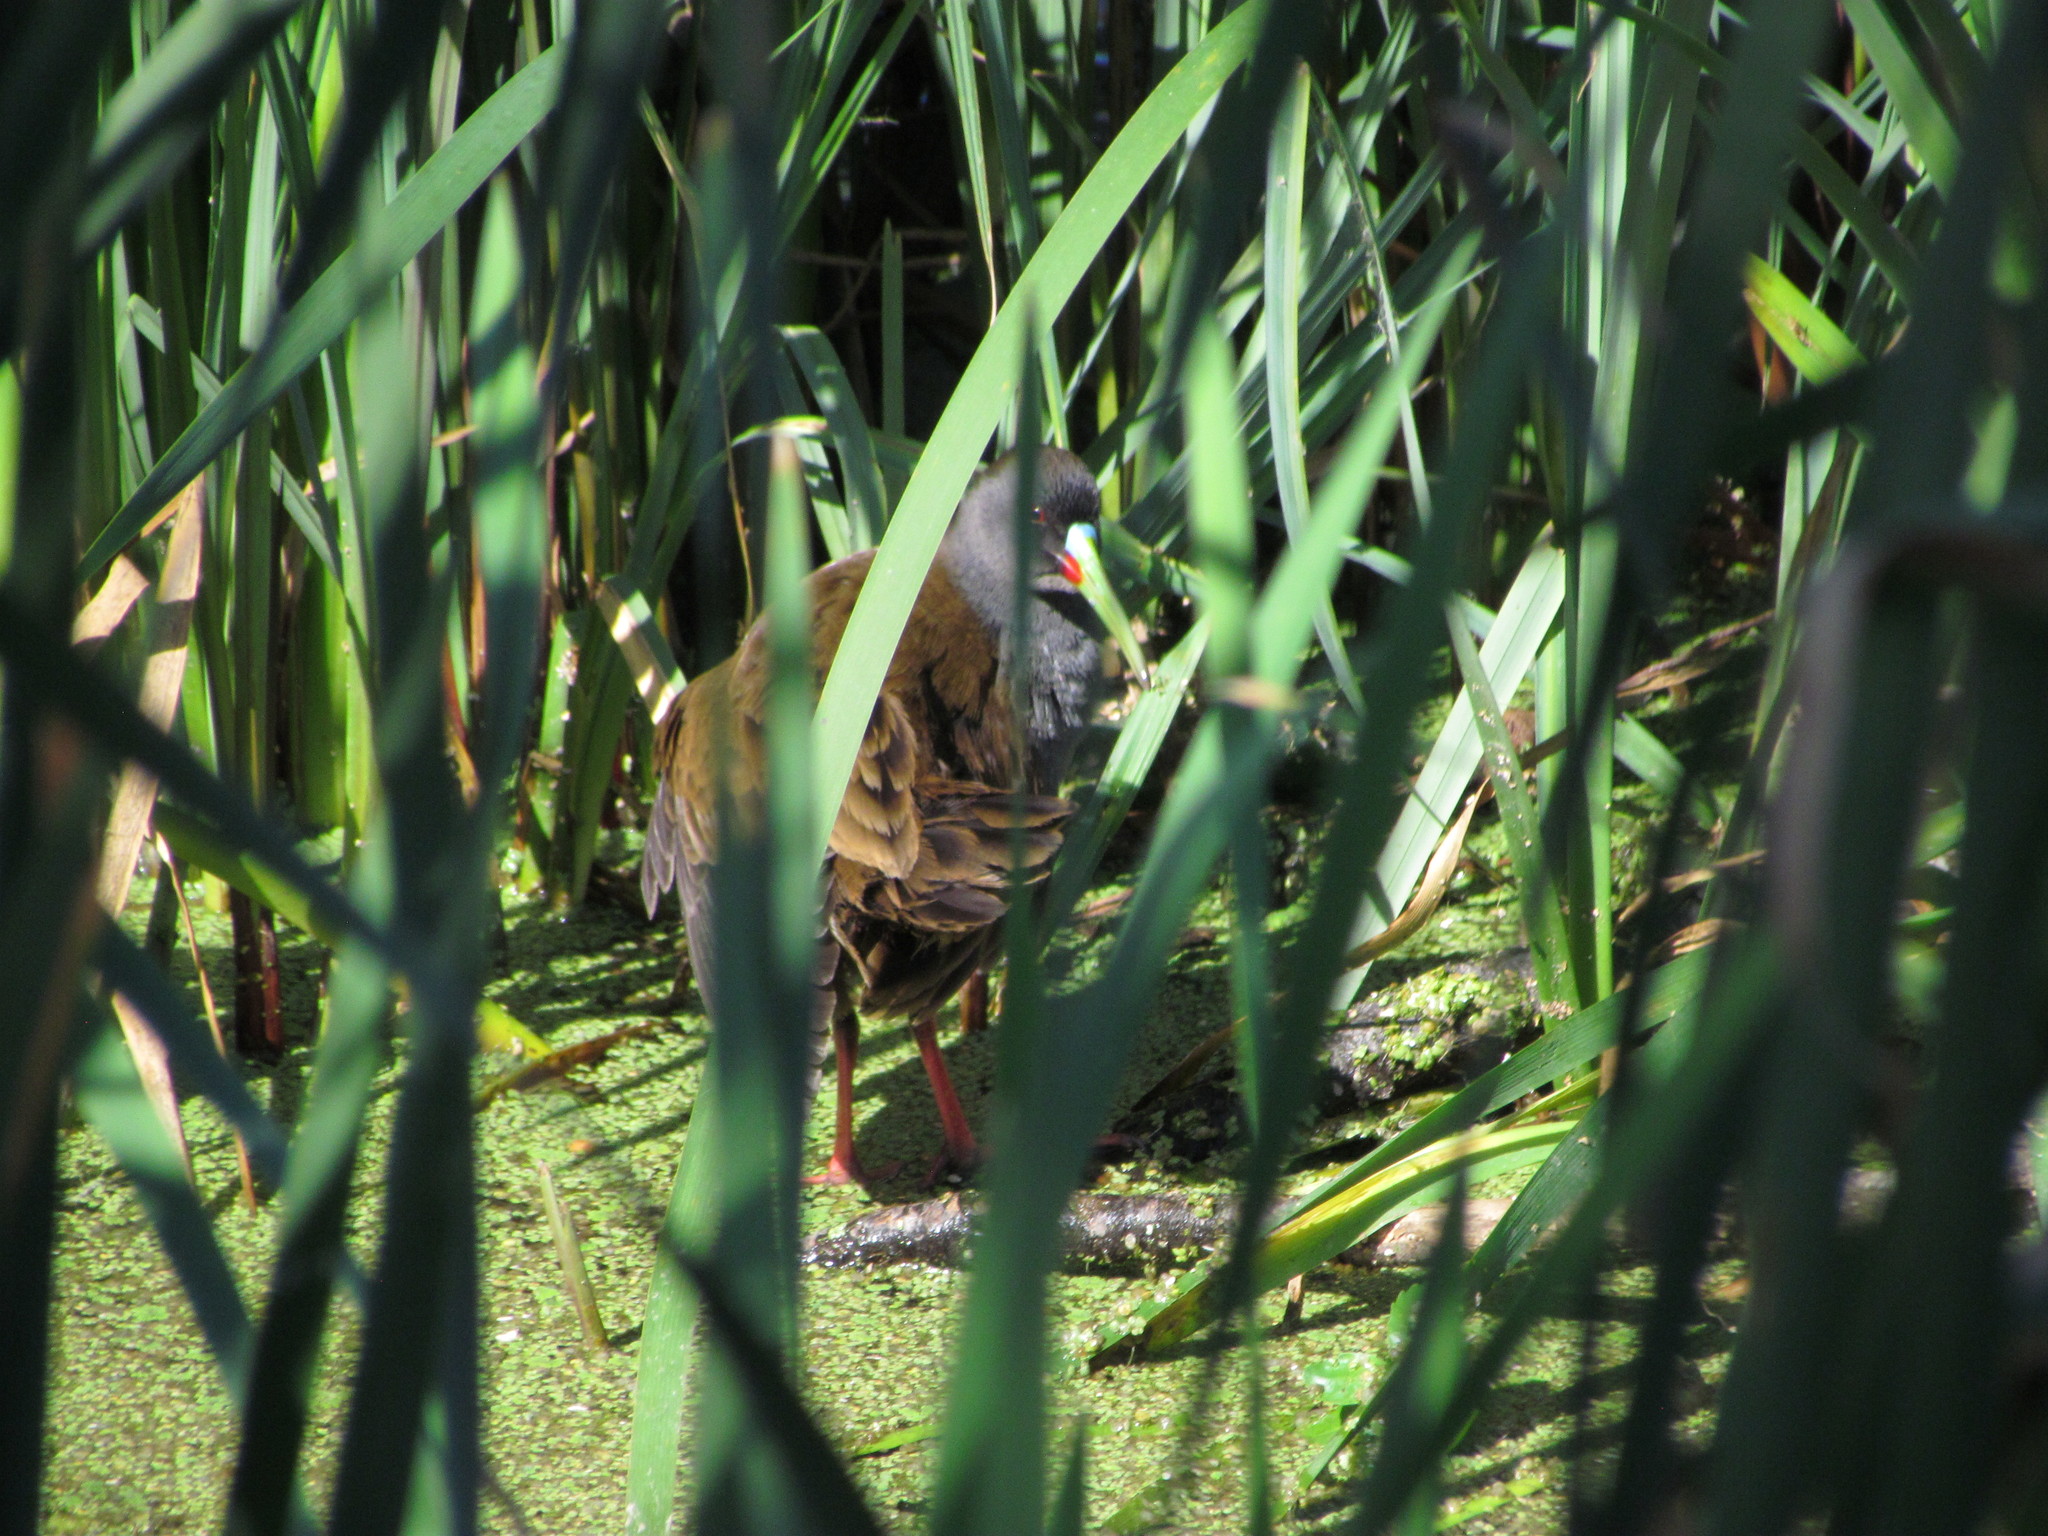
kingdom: Animalia
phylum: Chordata
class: Aves
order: Gruiformes
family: Rallidae
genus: Pardirallus
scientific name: Pardirallus sanguinolentus
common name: Plumbeous rail
